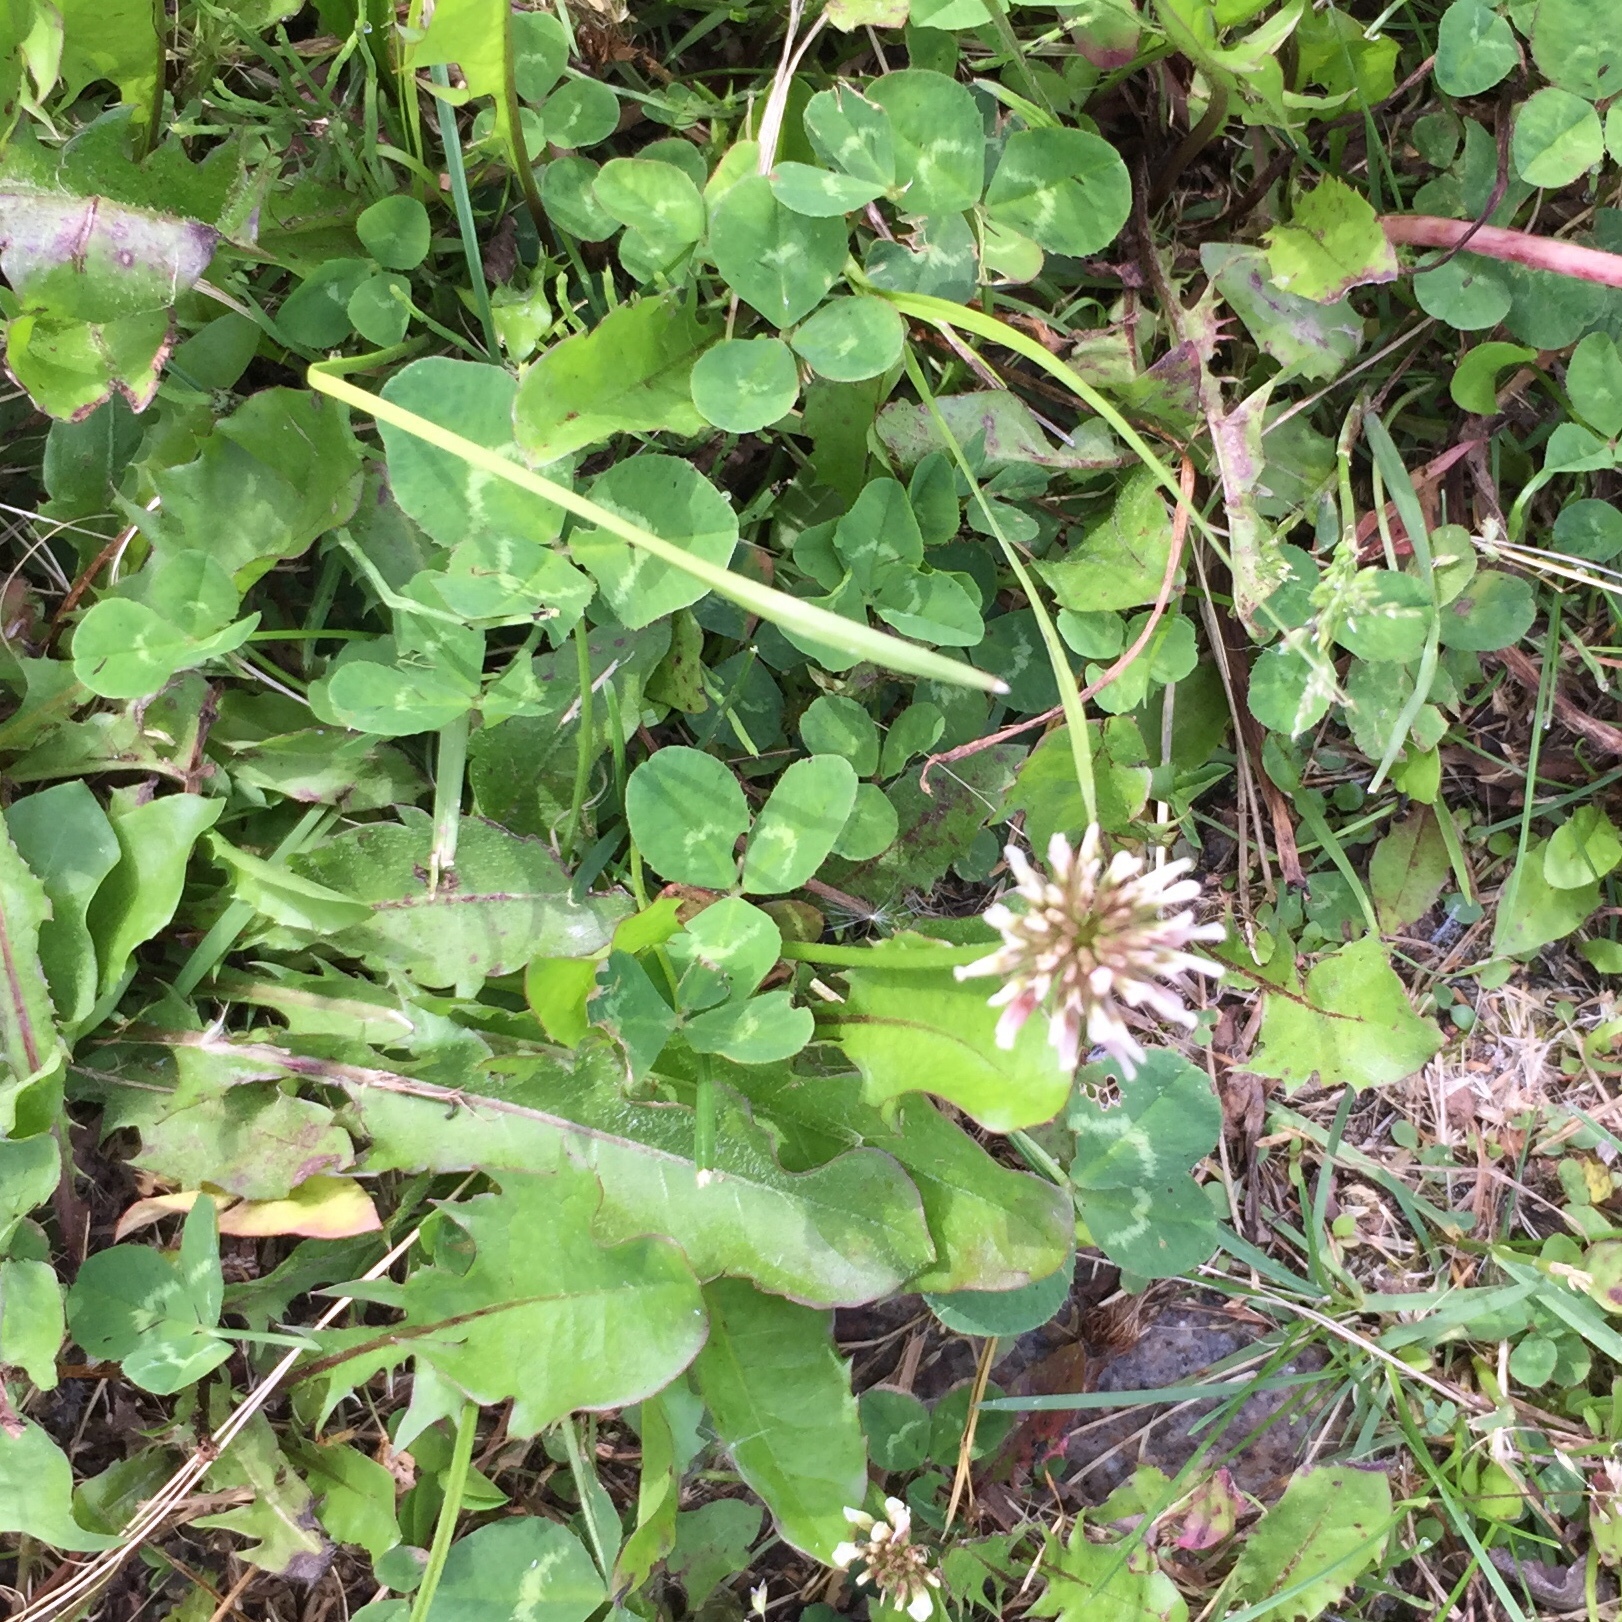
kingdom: Plantae
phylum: Tracheophyta
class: Magnoliopsida
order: Fabales
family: Fabaceae
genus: Trifolium
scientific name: Trifolium repens
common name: White clover
